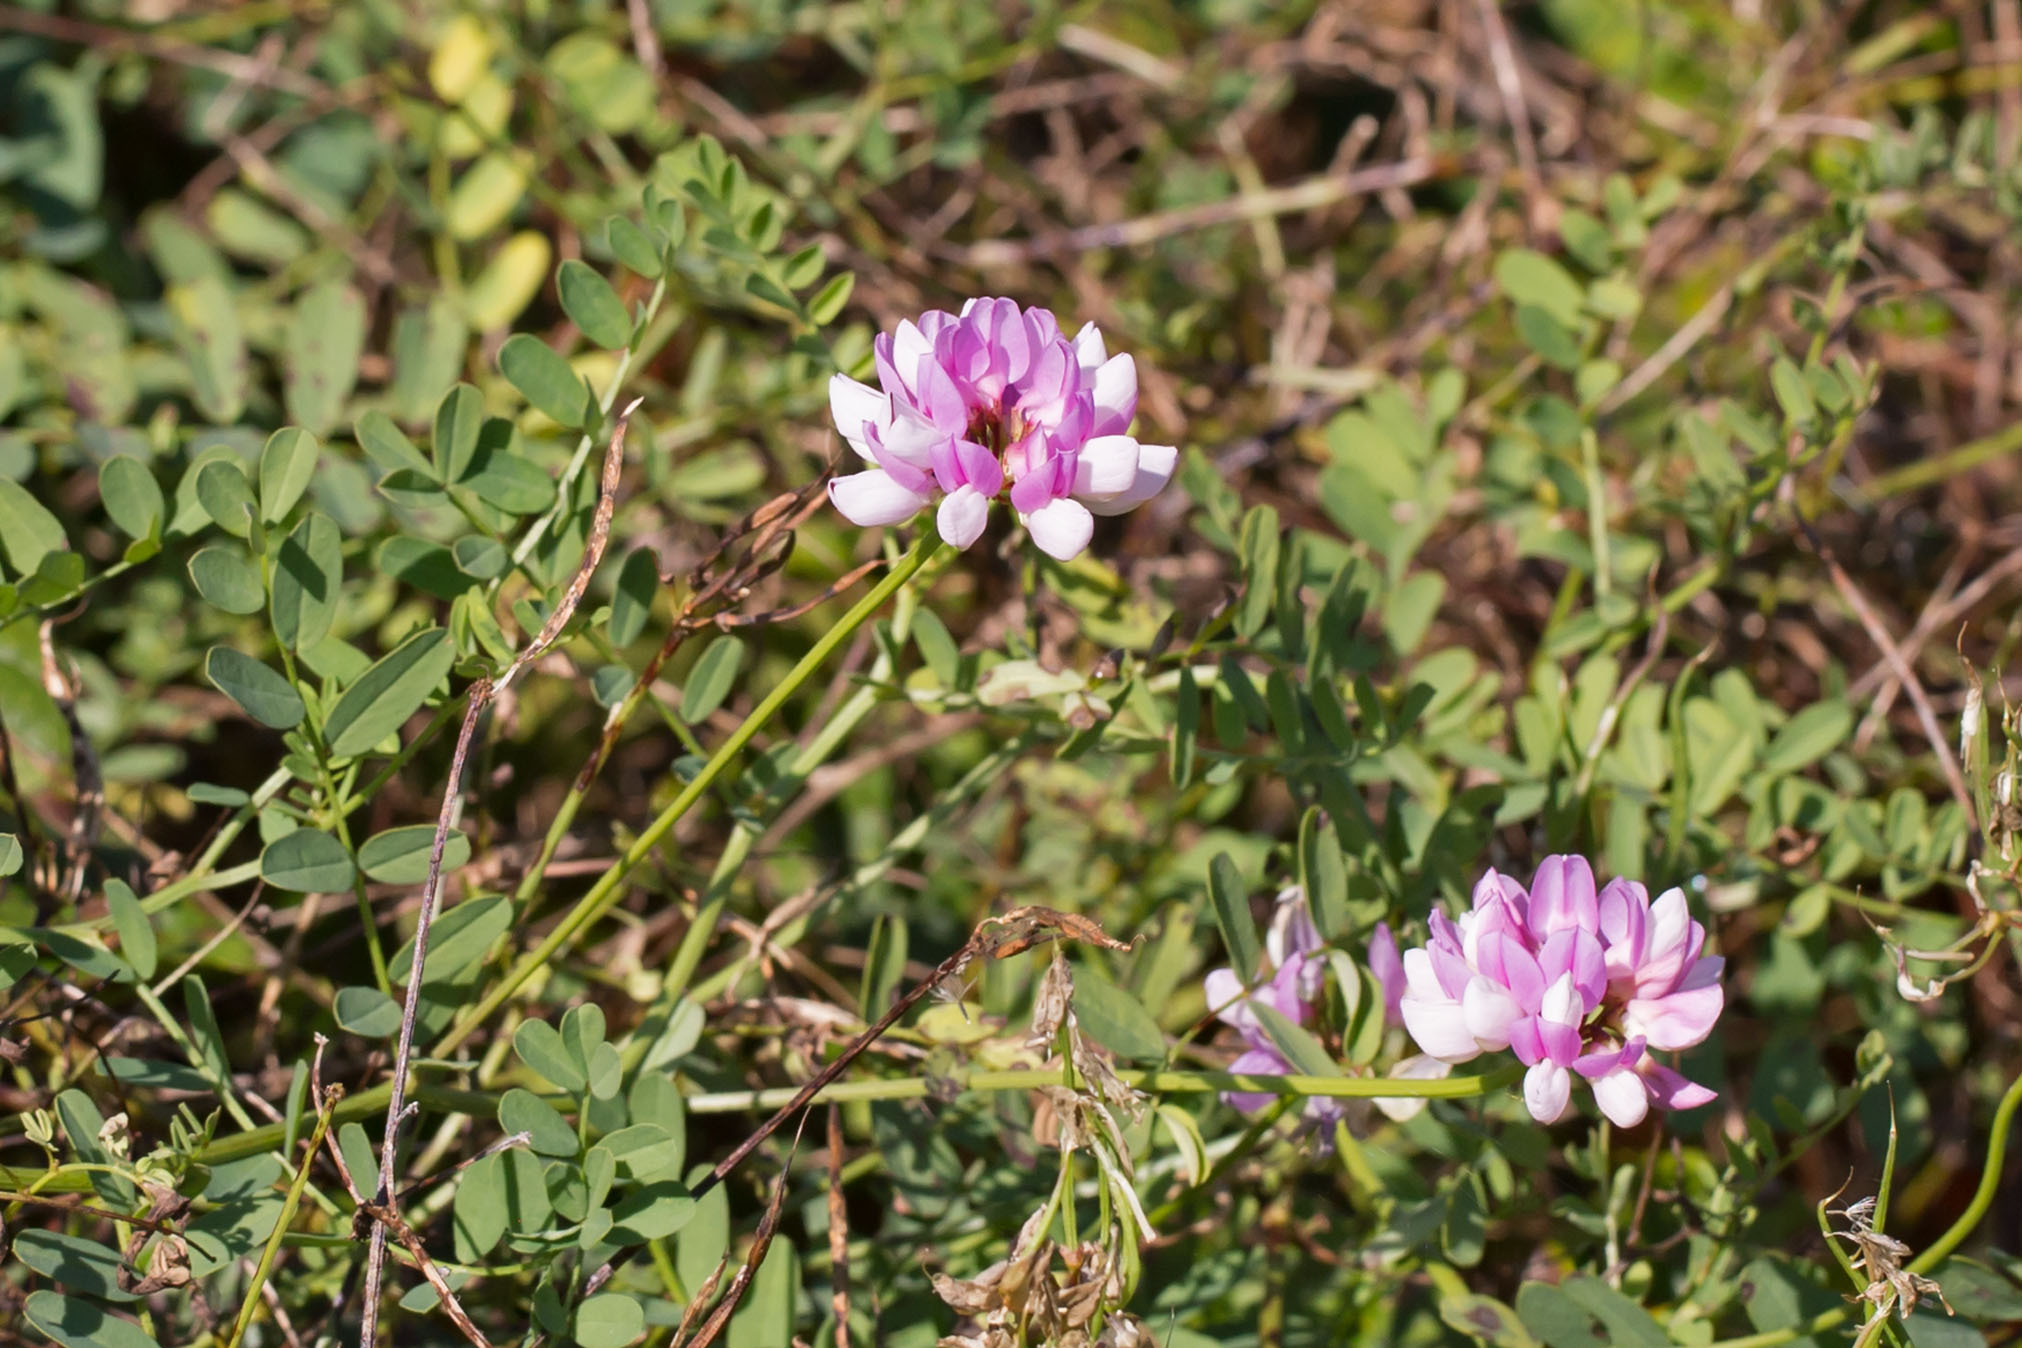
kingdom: Plantae
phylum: Tracheophyta
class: Magnoliopsida
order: Fabales
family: Fabaceae
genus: Coronilla
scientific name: Coronilla varia
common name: Crownvetch
